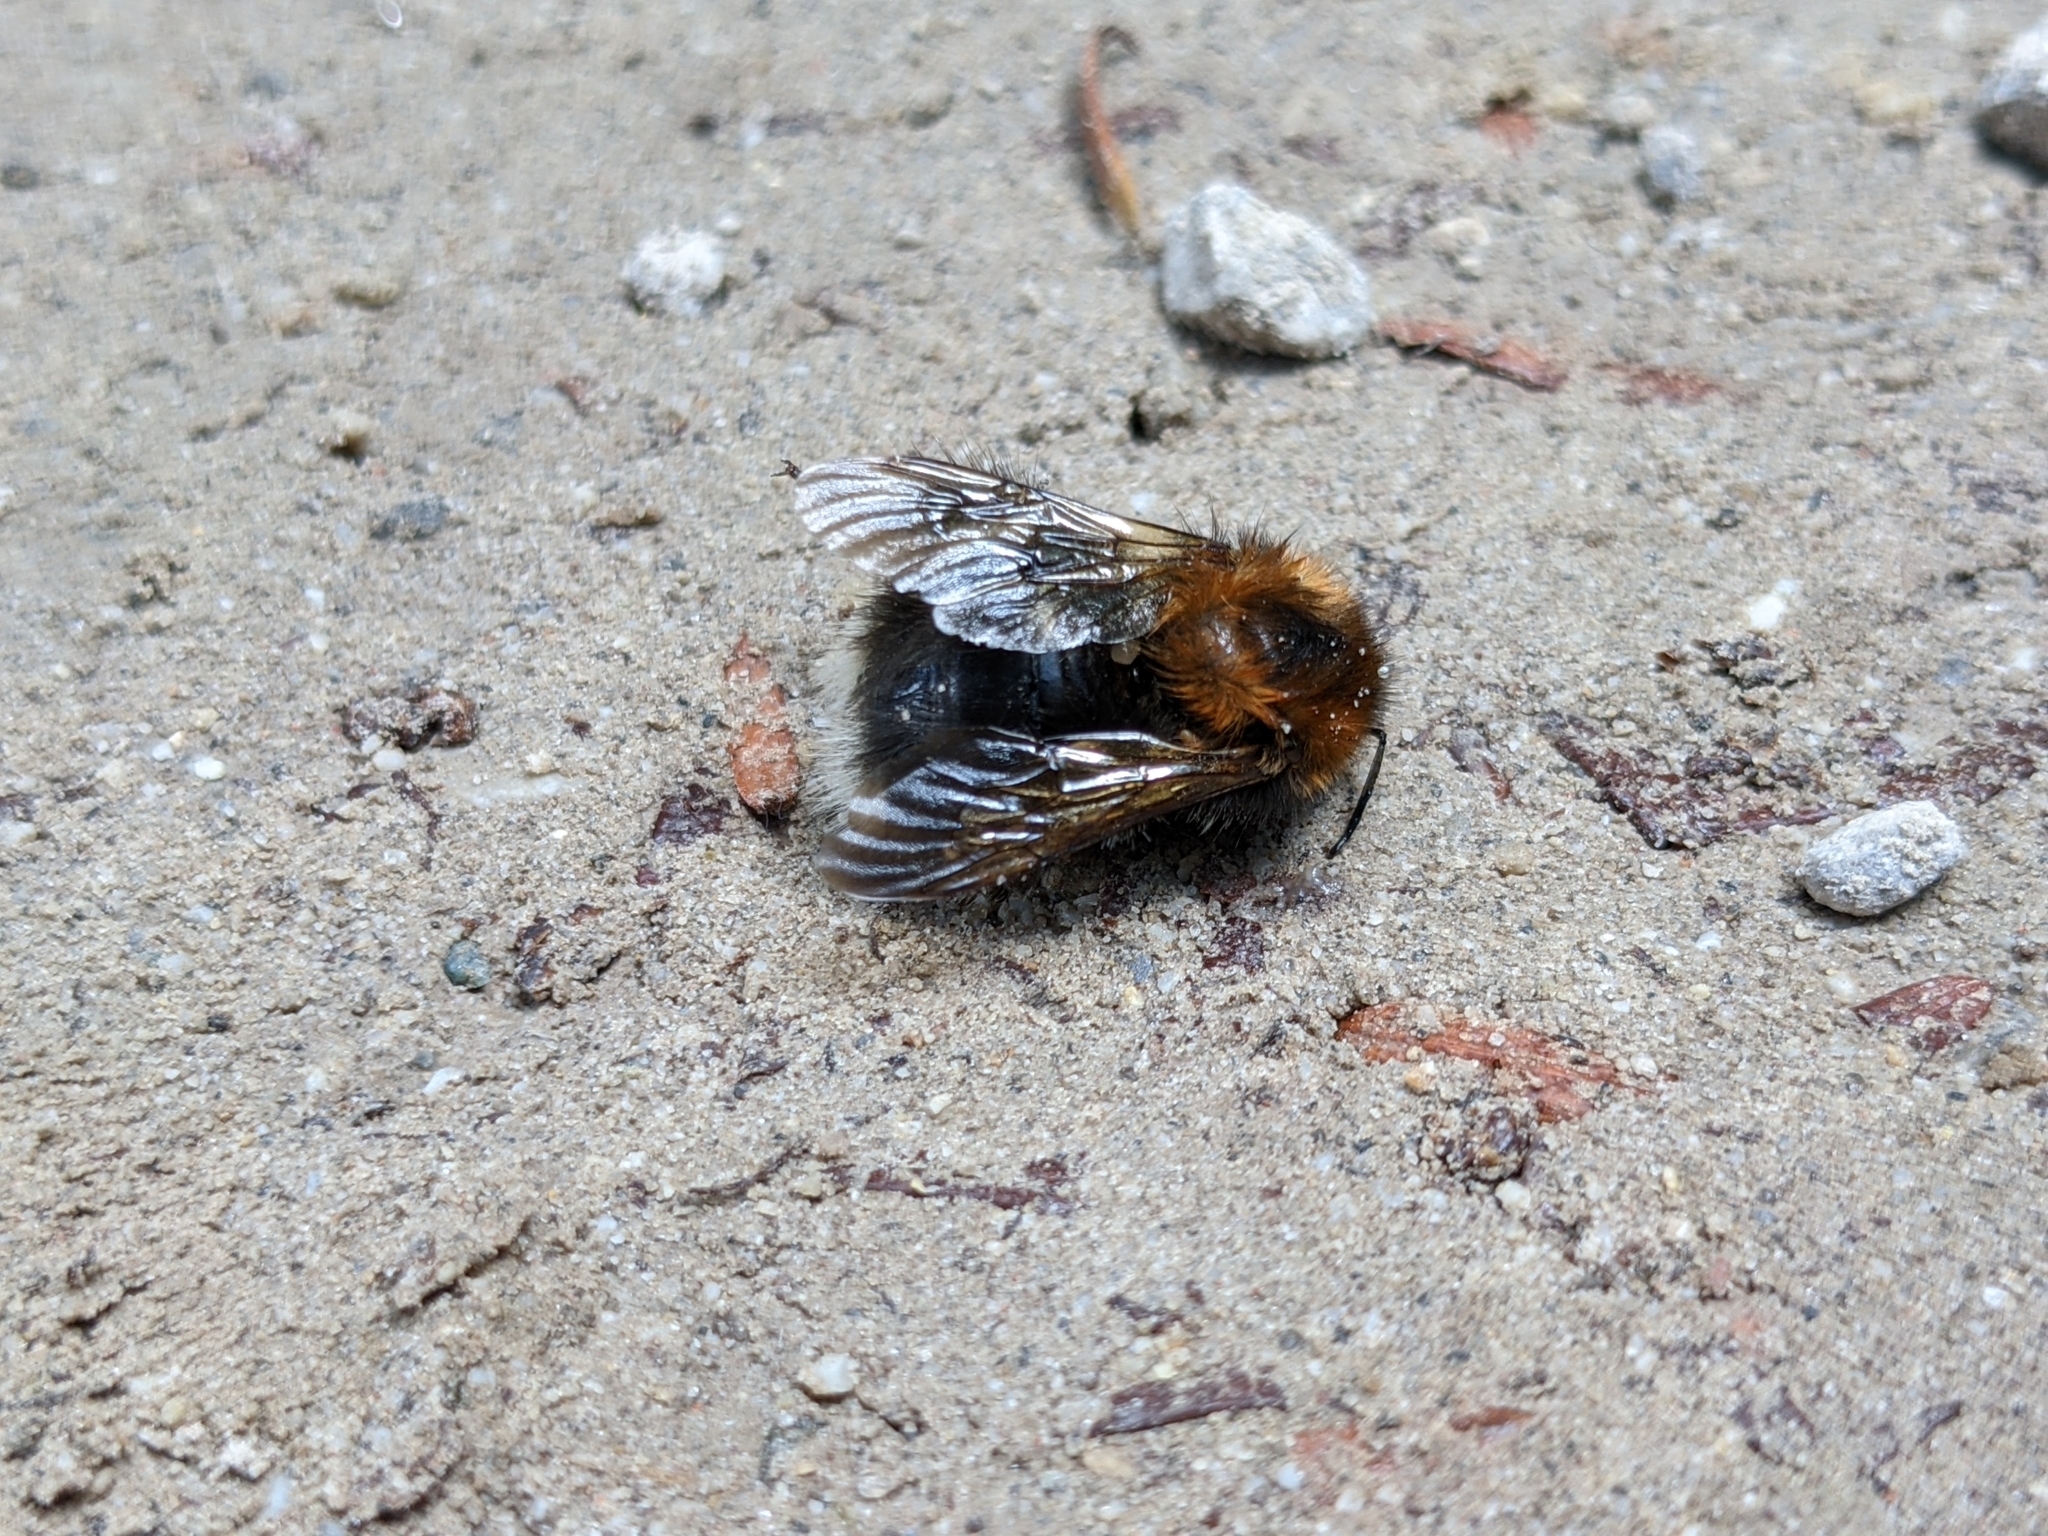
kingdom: Animalia
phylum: Arthropoda
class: Insecta
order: Hymenoptera
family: Apidae
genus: Bombus
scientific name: Bombus hypnorum
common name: New garden bumblebee
